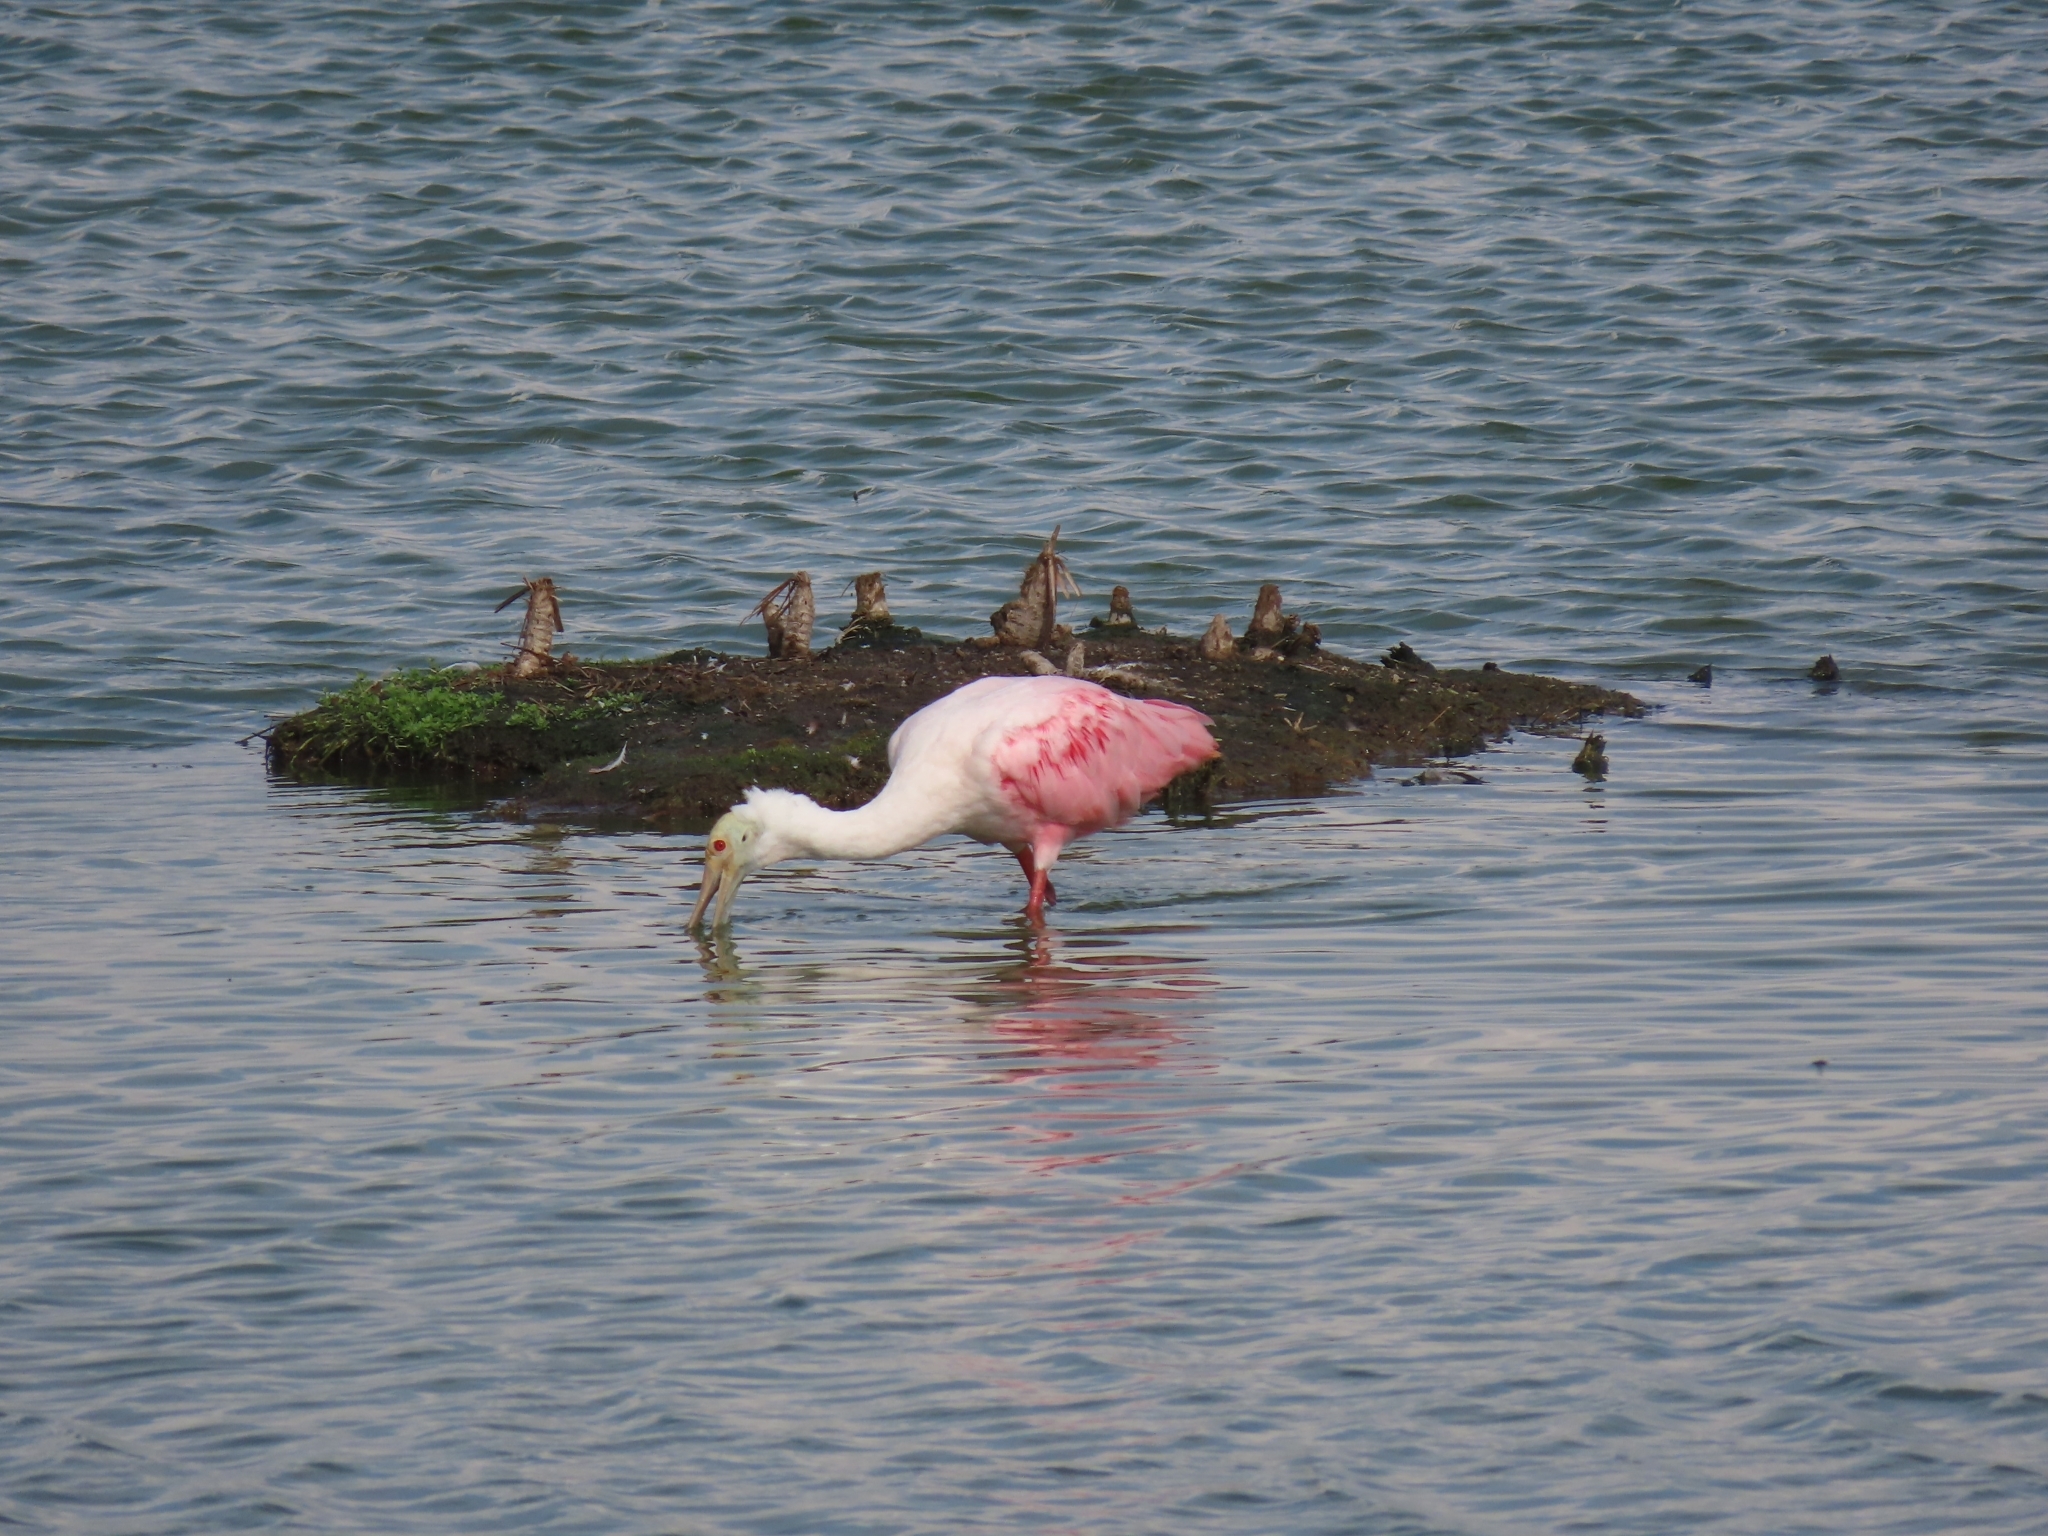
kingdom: Animalia
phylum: Chordata
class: Aves
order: Pelecaniformes
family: Threskiornithidae
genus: Platalea
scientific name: Platalea ajaja
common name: Roseate spoonbill
